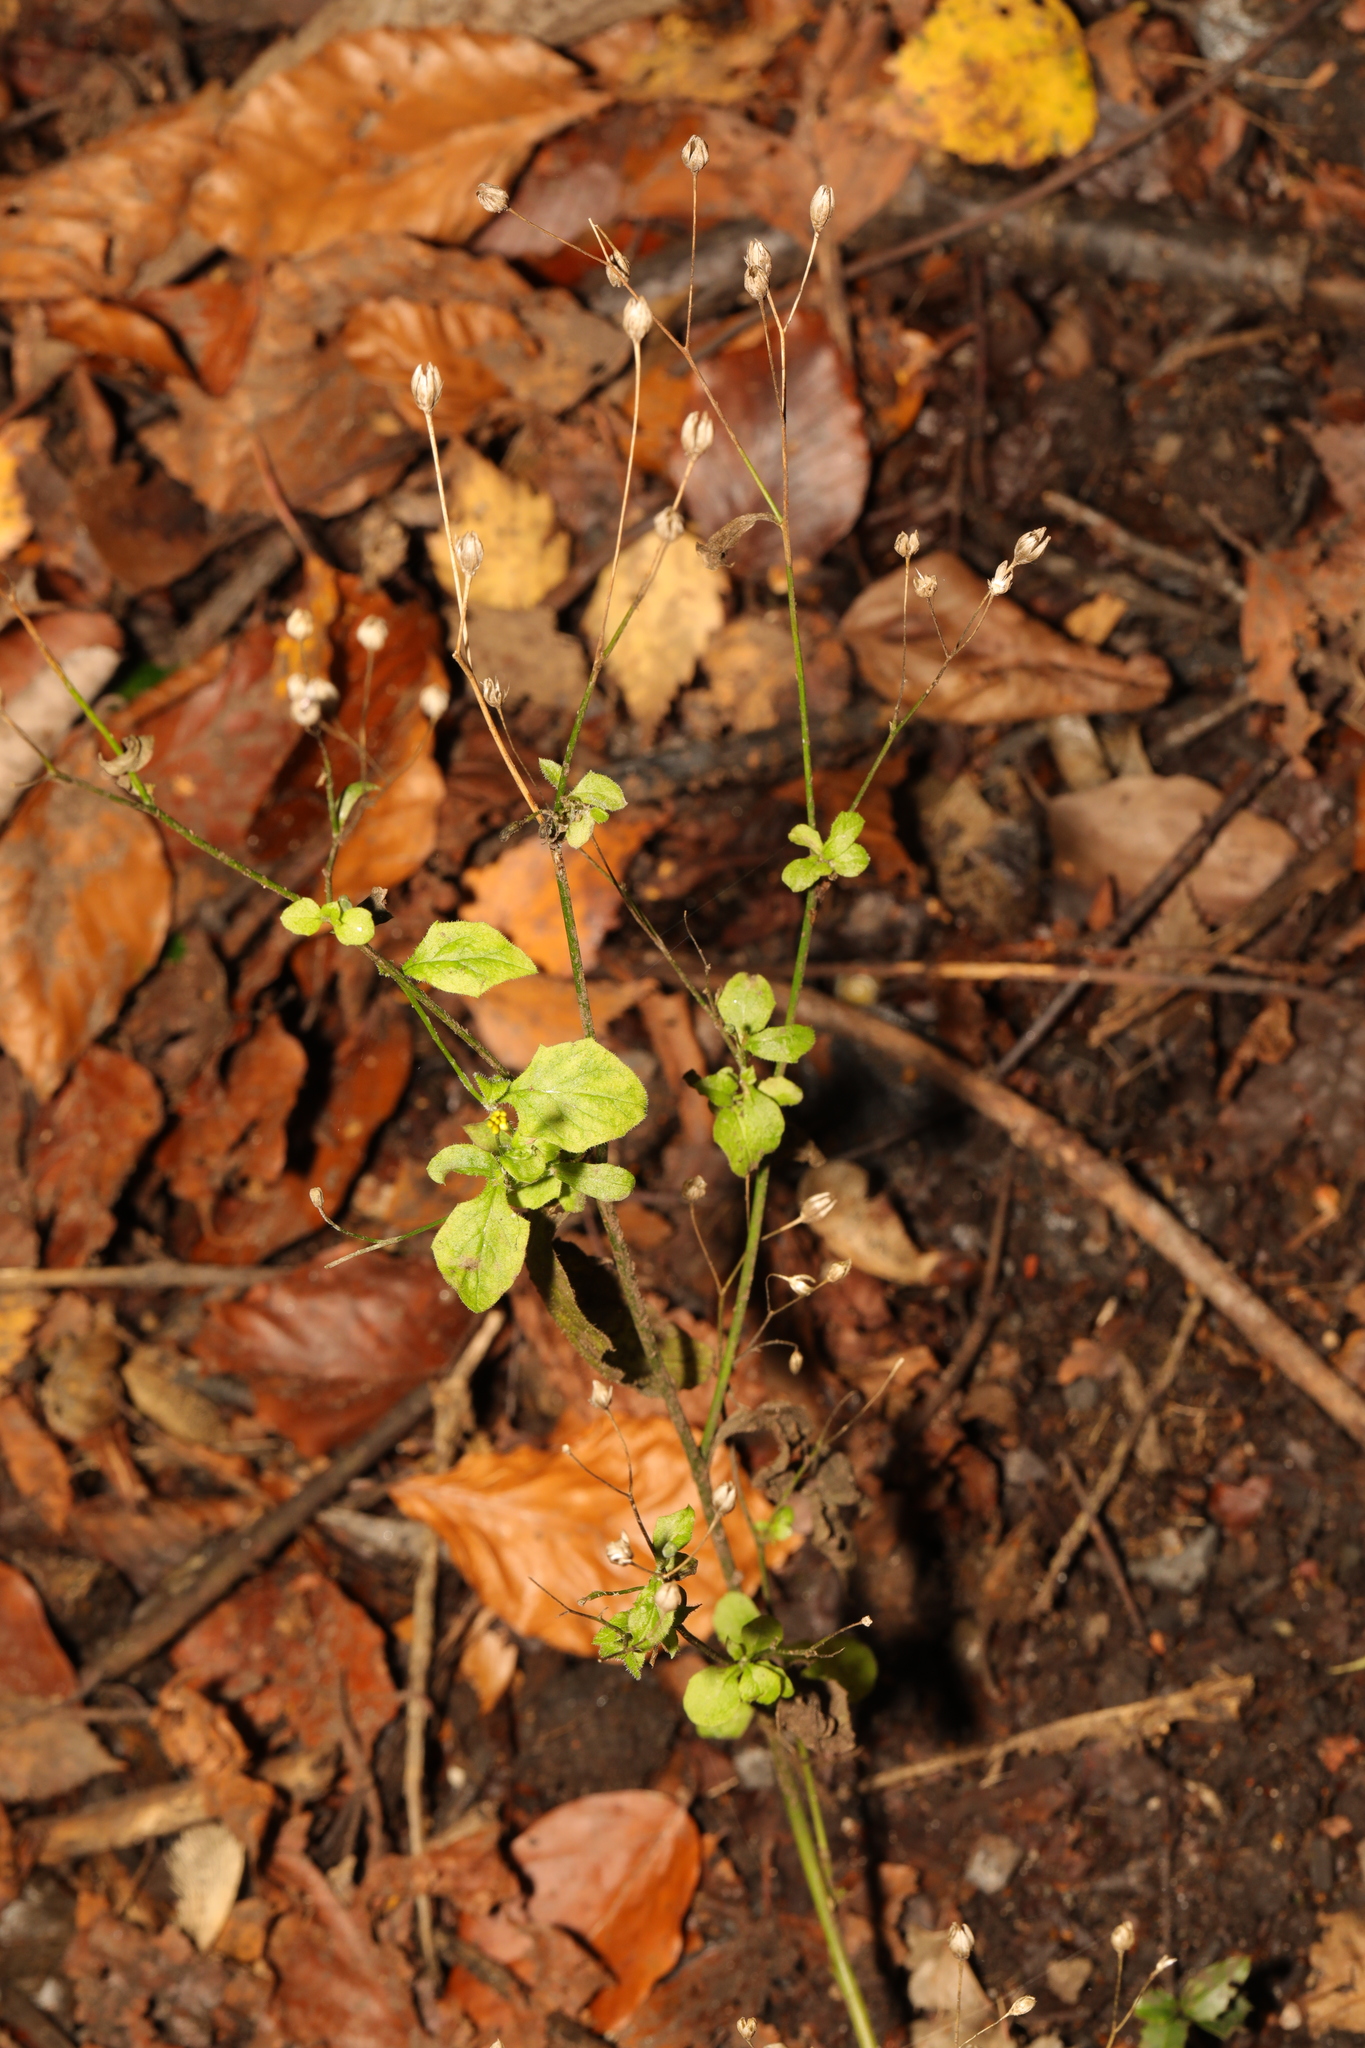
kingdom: Plantae
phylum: Tracheophyta
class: Magnoliopsida
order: Asterales
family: Asteraceae
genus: Lapsana
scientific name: Lapsana communis
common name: Nipplewort
